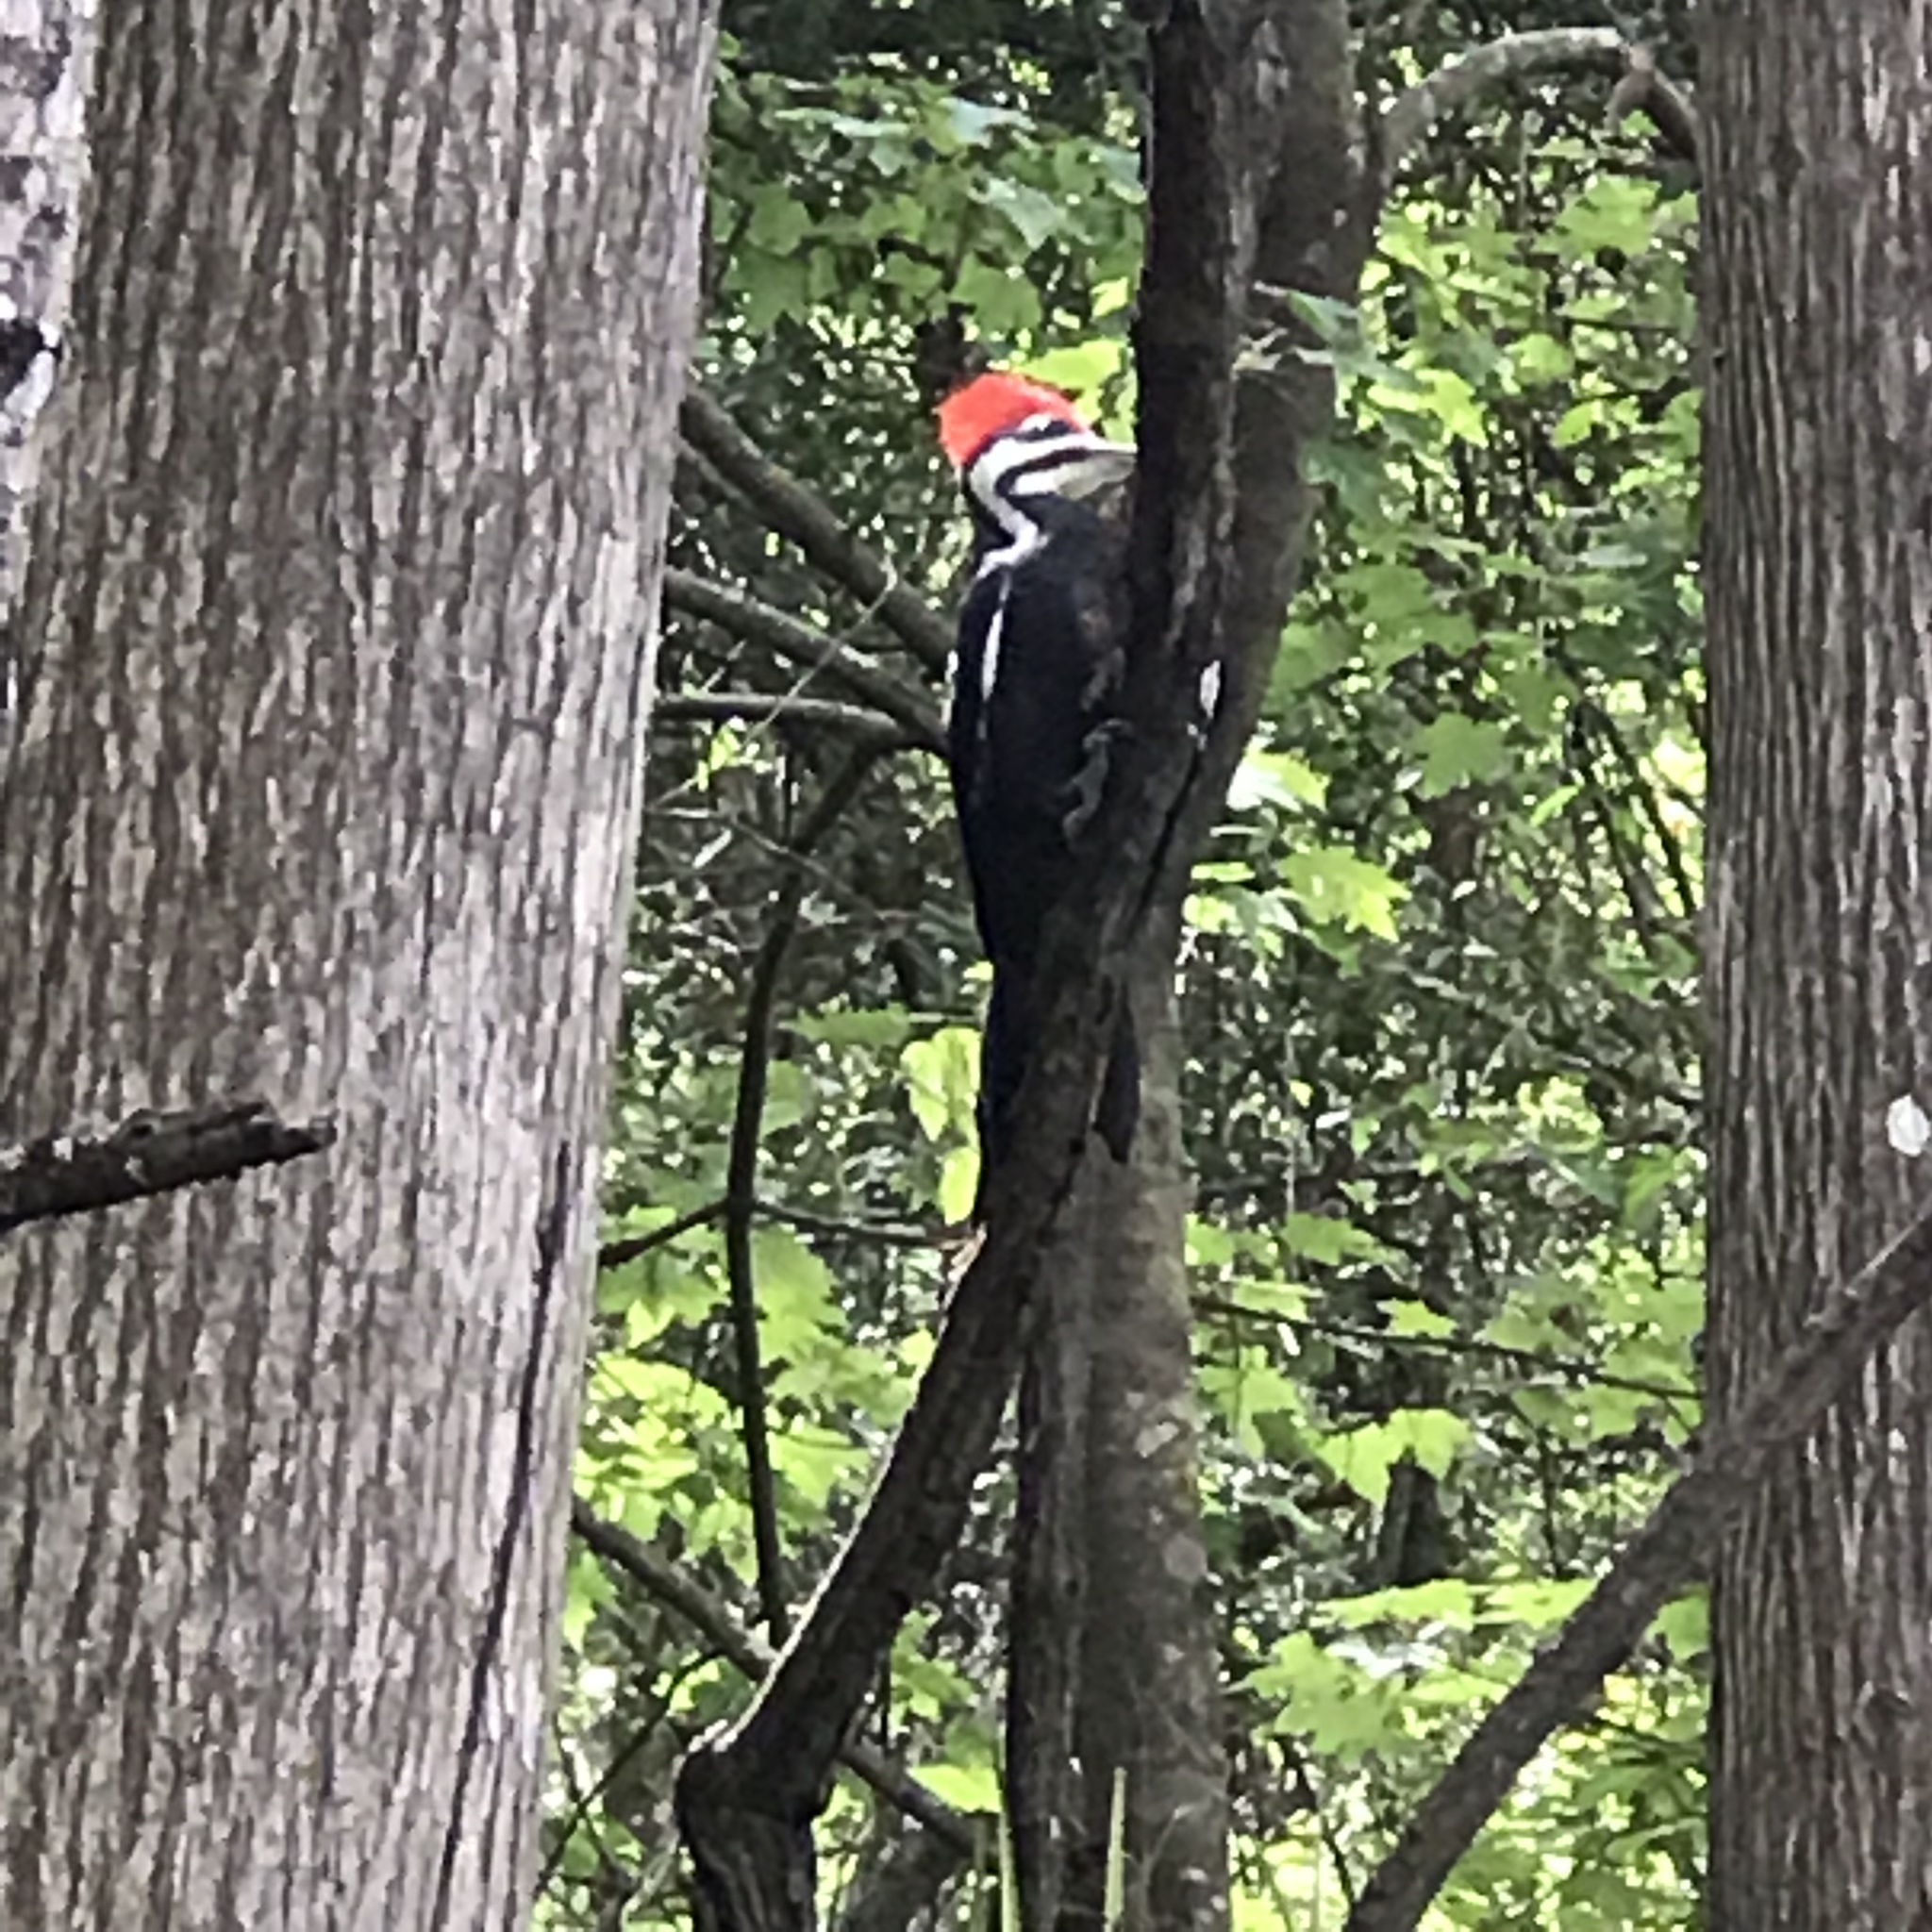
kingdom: Animalia
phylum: Chordata
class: Aves
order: Piciformes
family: Picidae
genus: Dryocopus
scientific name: Dryocopus pileatus
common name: Pileated woodpecker
